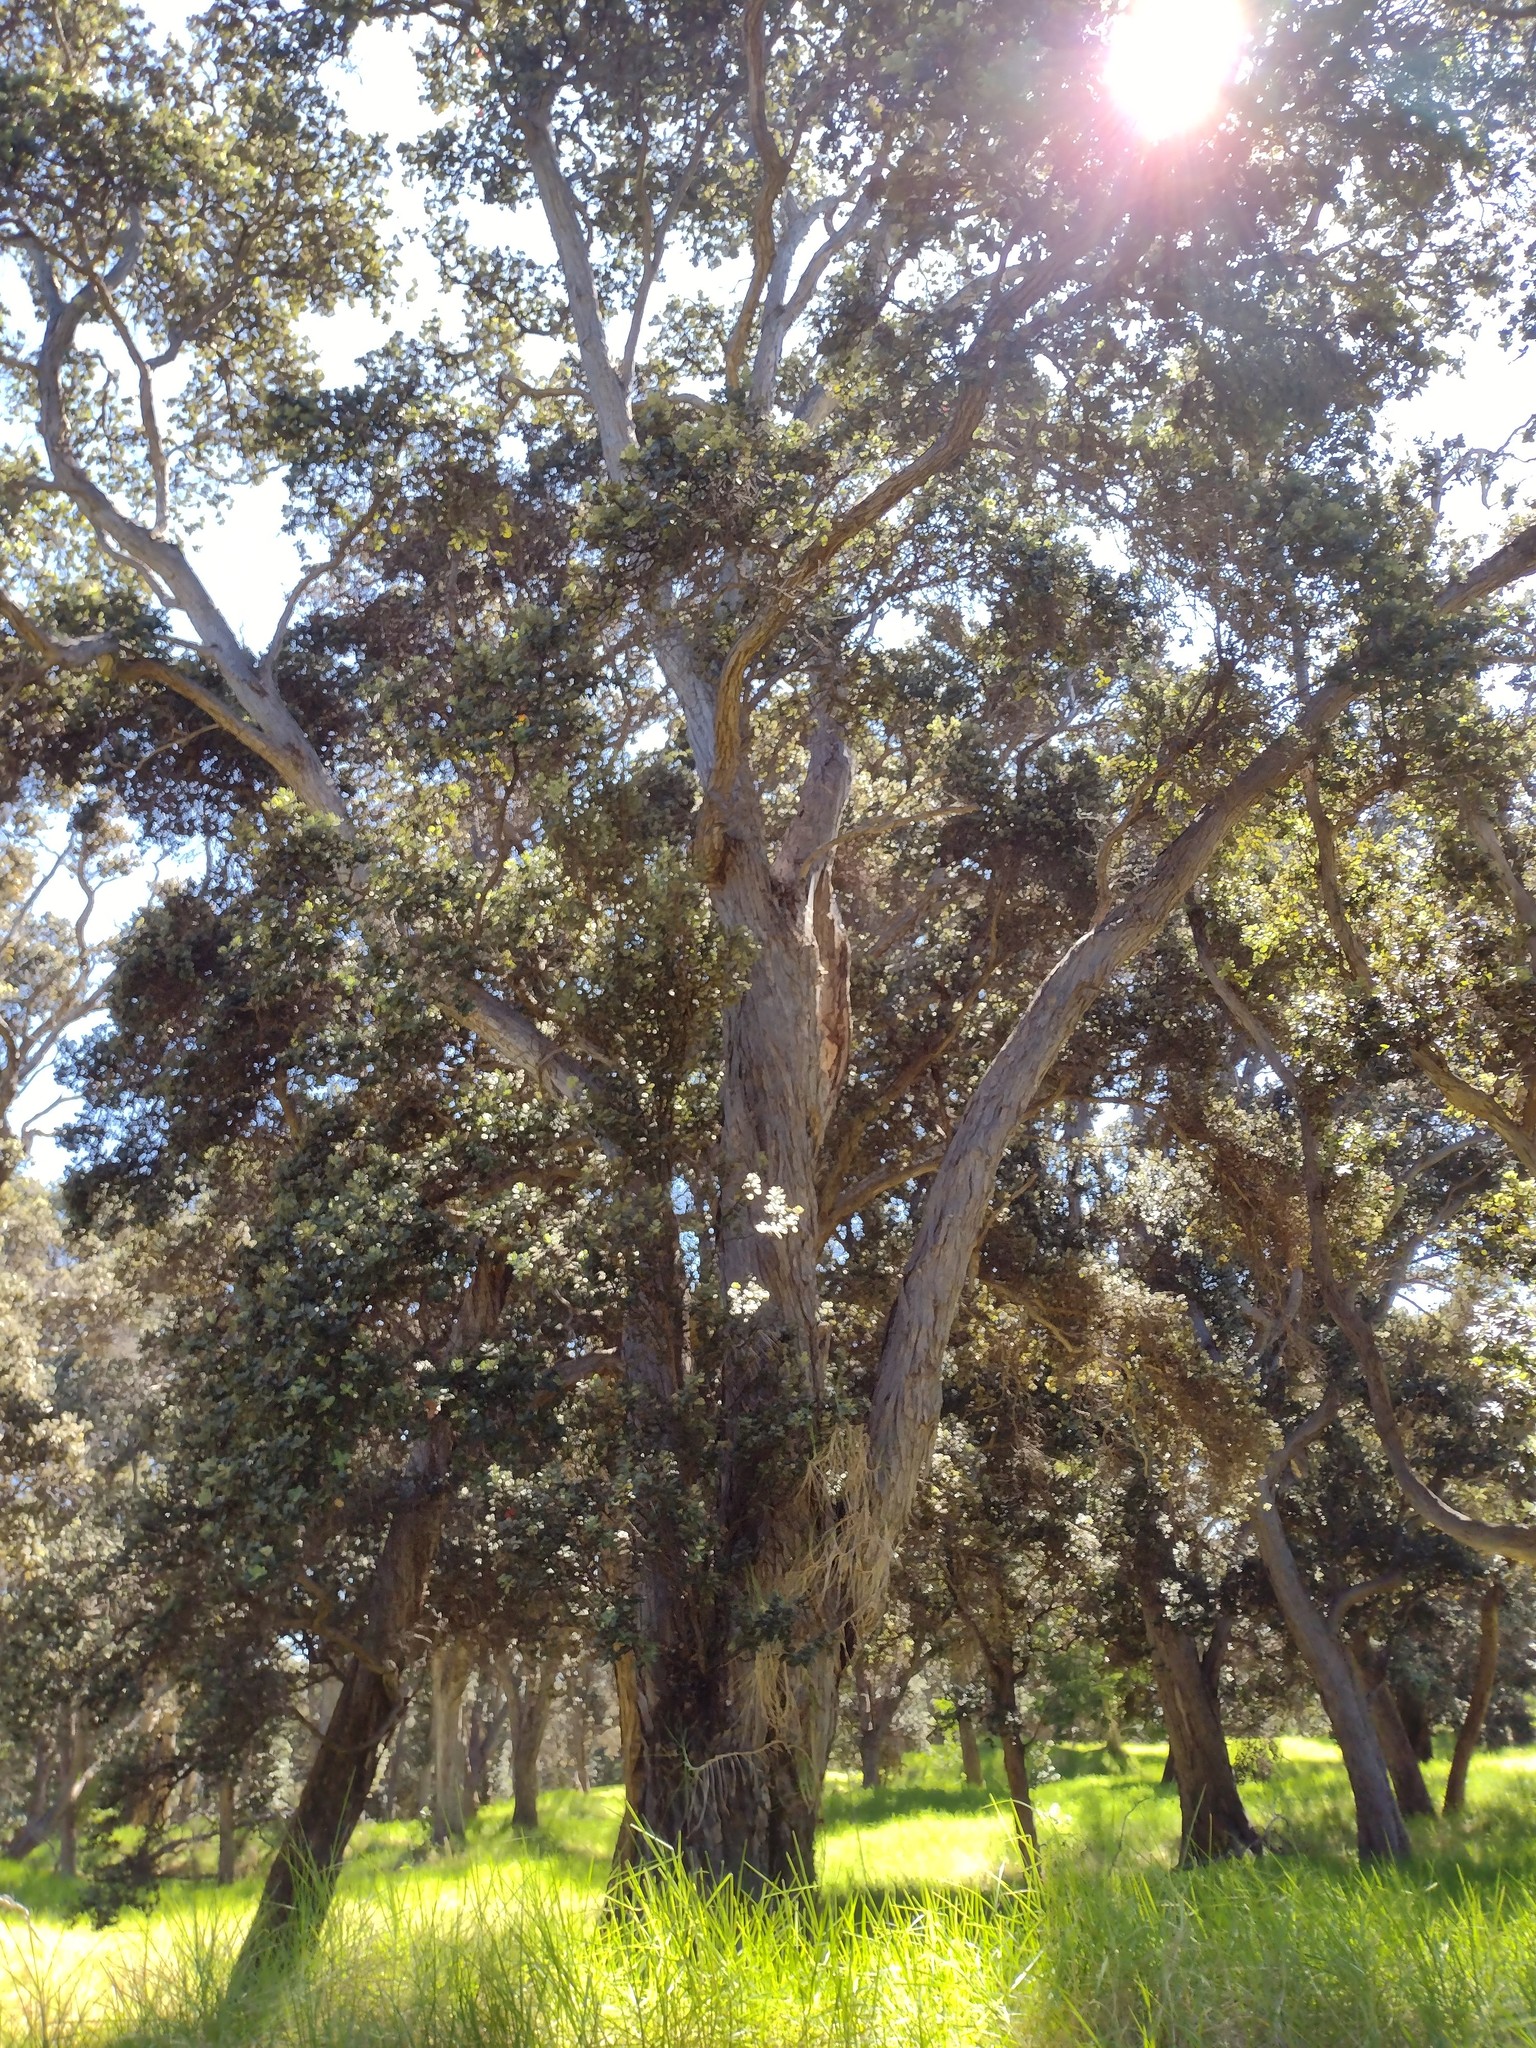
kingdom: Plantae
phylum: Tracheophyta
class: Magnoliopsida
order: Myrtales
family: Myrtaceae
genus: Metrosideros
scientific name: Metrosideros polymorpha
